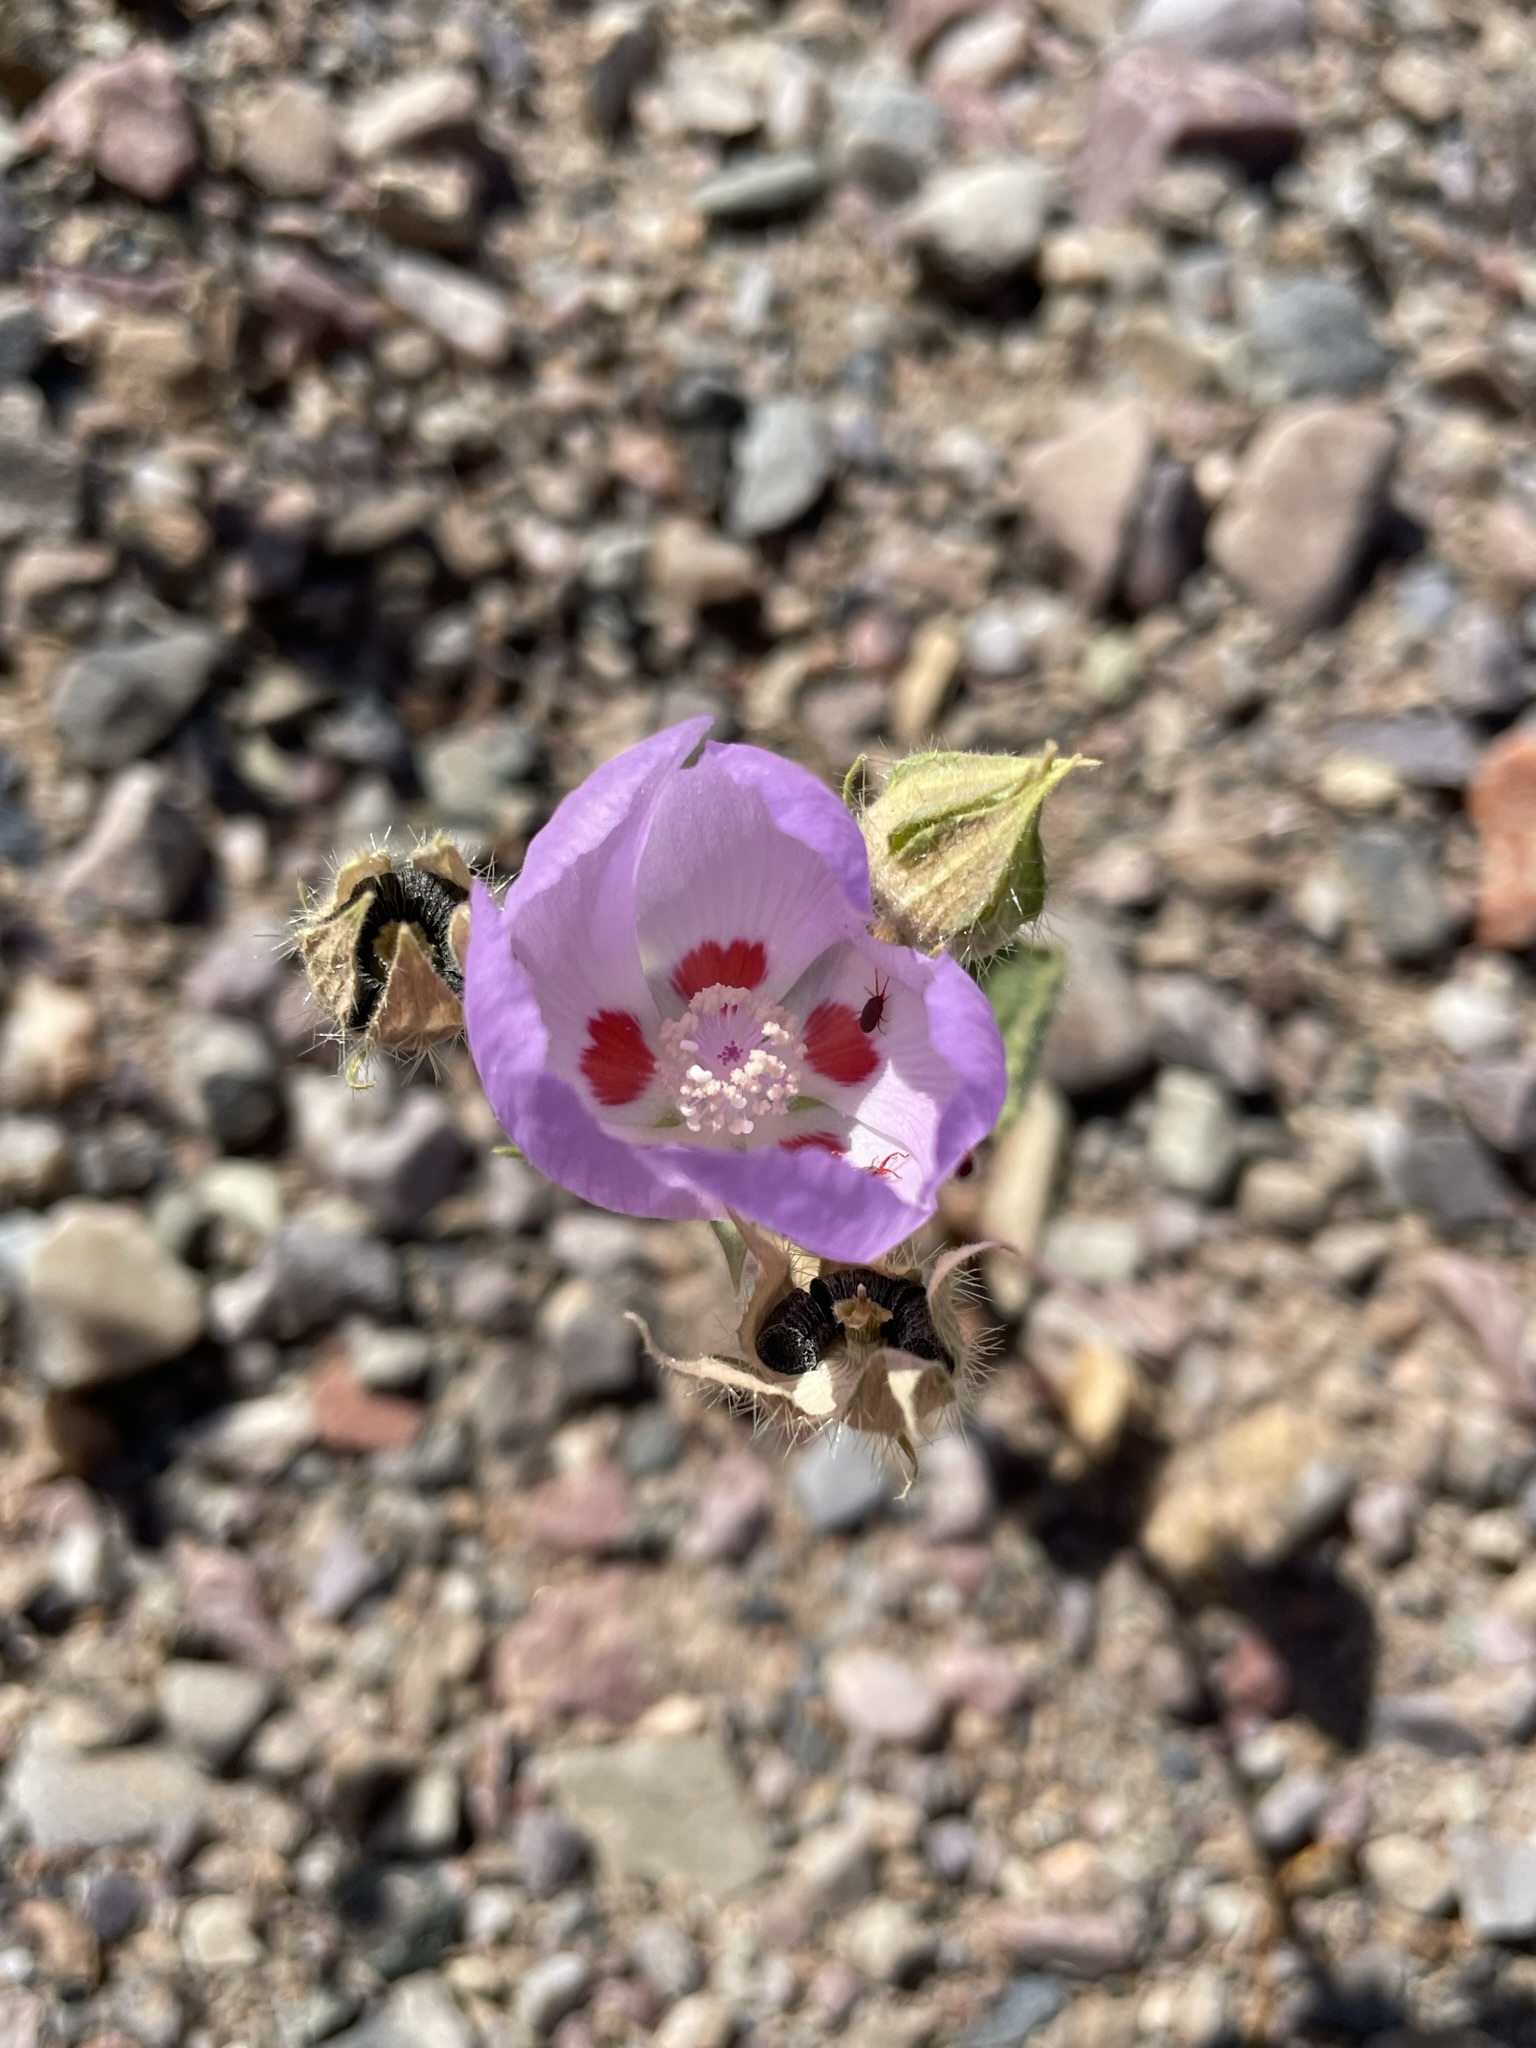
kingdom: Plantae
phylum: Tracheophyta
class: Magnoliopsida
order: Malvales
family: Malvaceae
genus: Eremalche
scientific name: Eremalche rotundifolia
